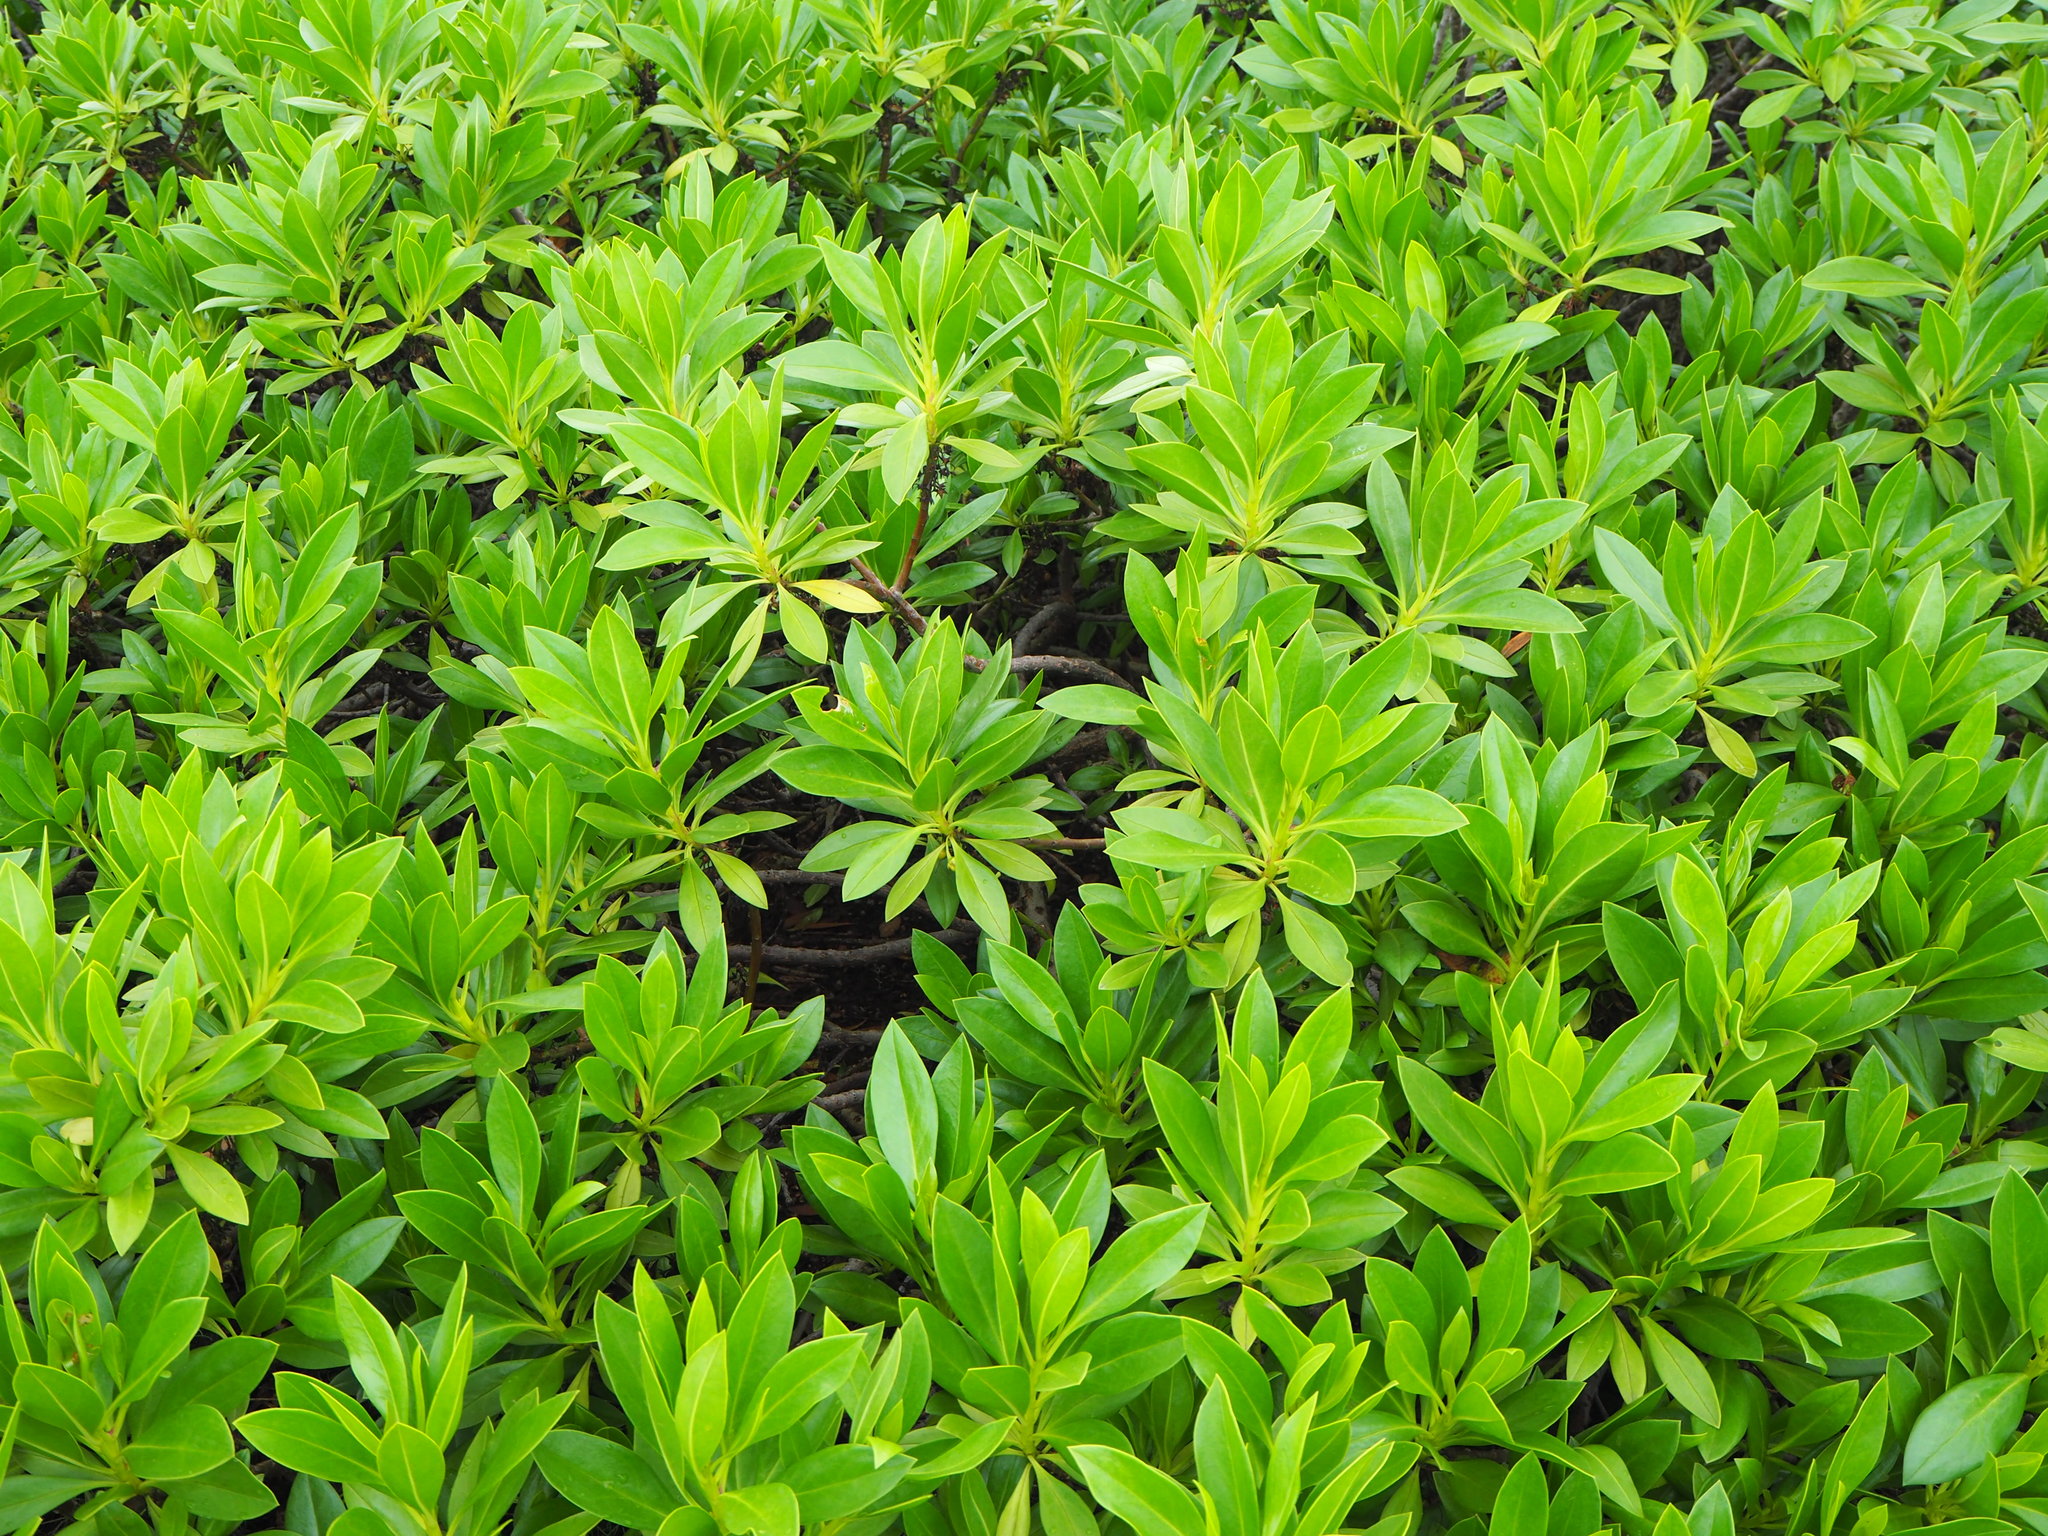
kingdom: Plantae
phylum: Tracheophyta
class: Magnoliopsida
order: Lamiales
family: Scrophulariaceae
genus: Myoporum
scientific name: Myoporum bontioides
